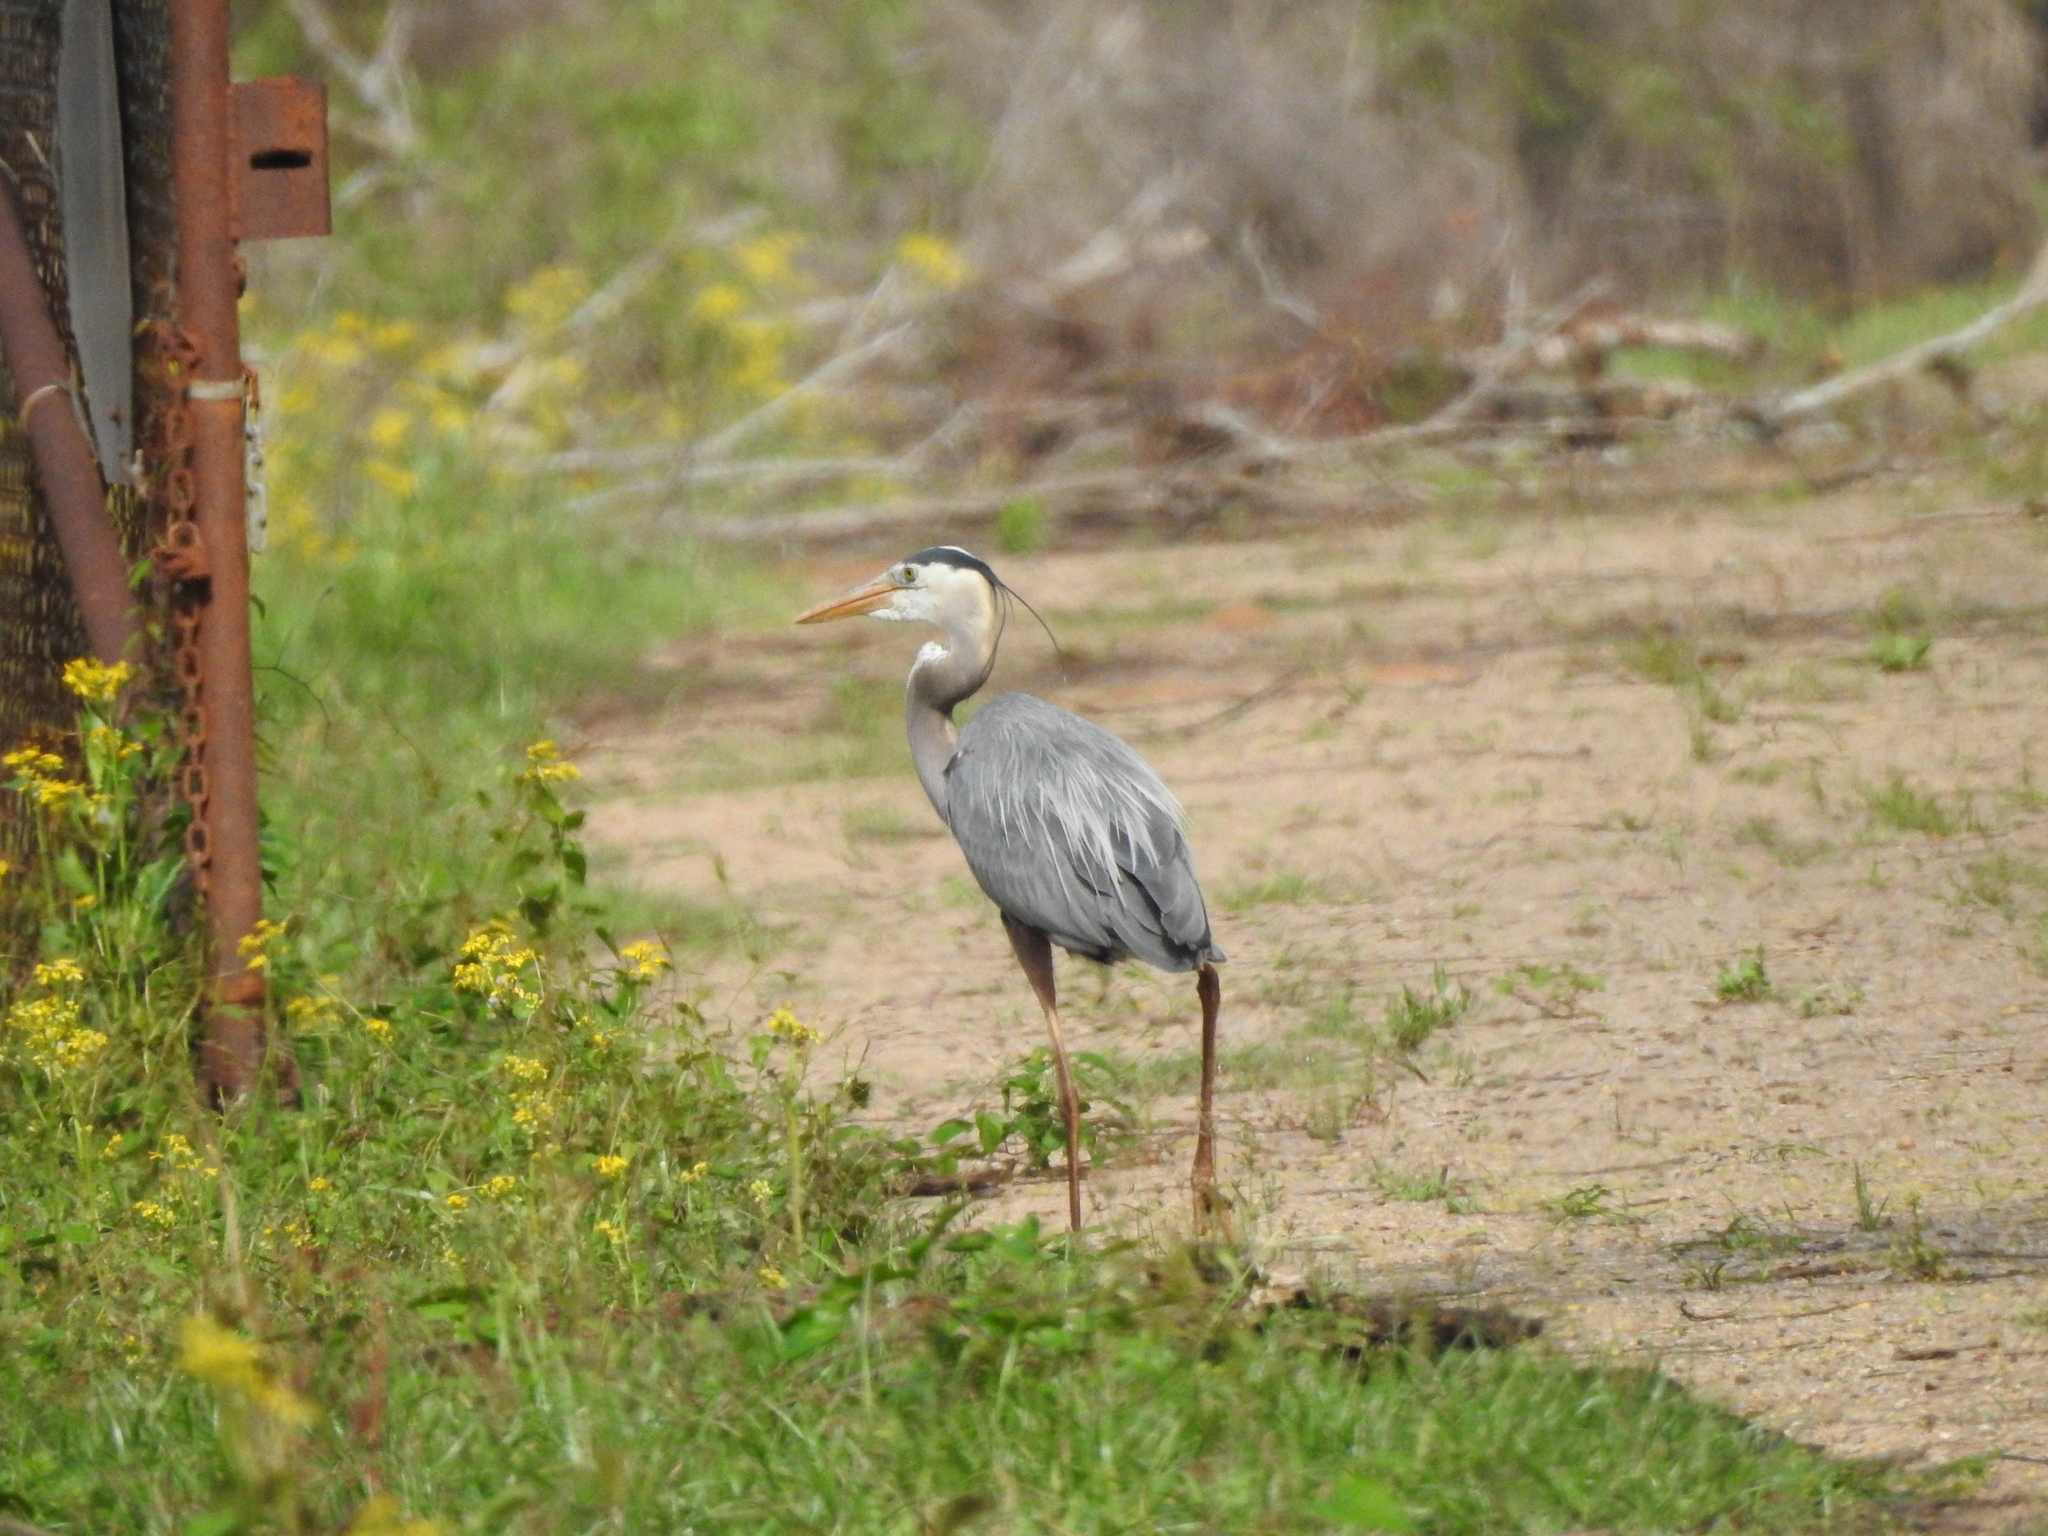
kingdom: Animalia
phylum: Chordata
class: Aves
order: Pelecaniformes
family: Ardeidae
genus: Ardea
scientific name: Ardea herodias
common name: Great blue heron
